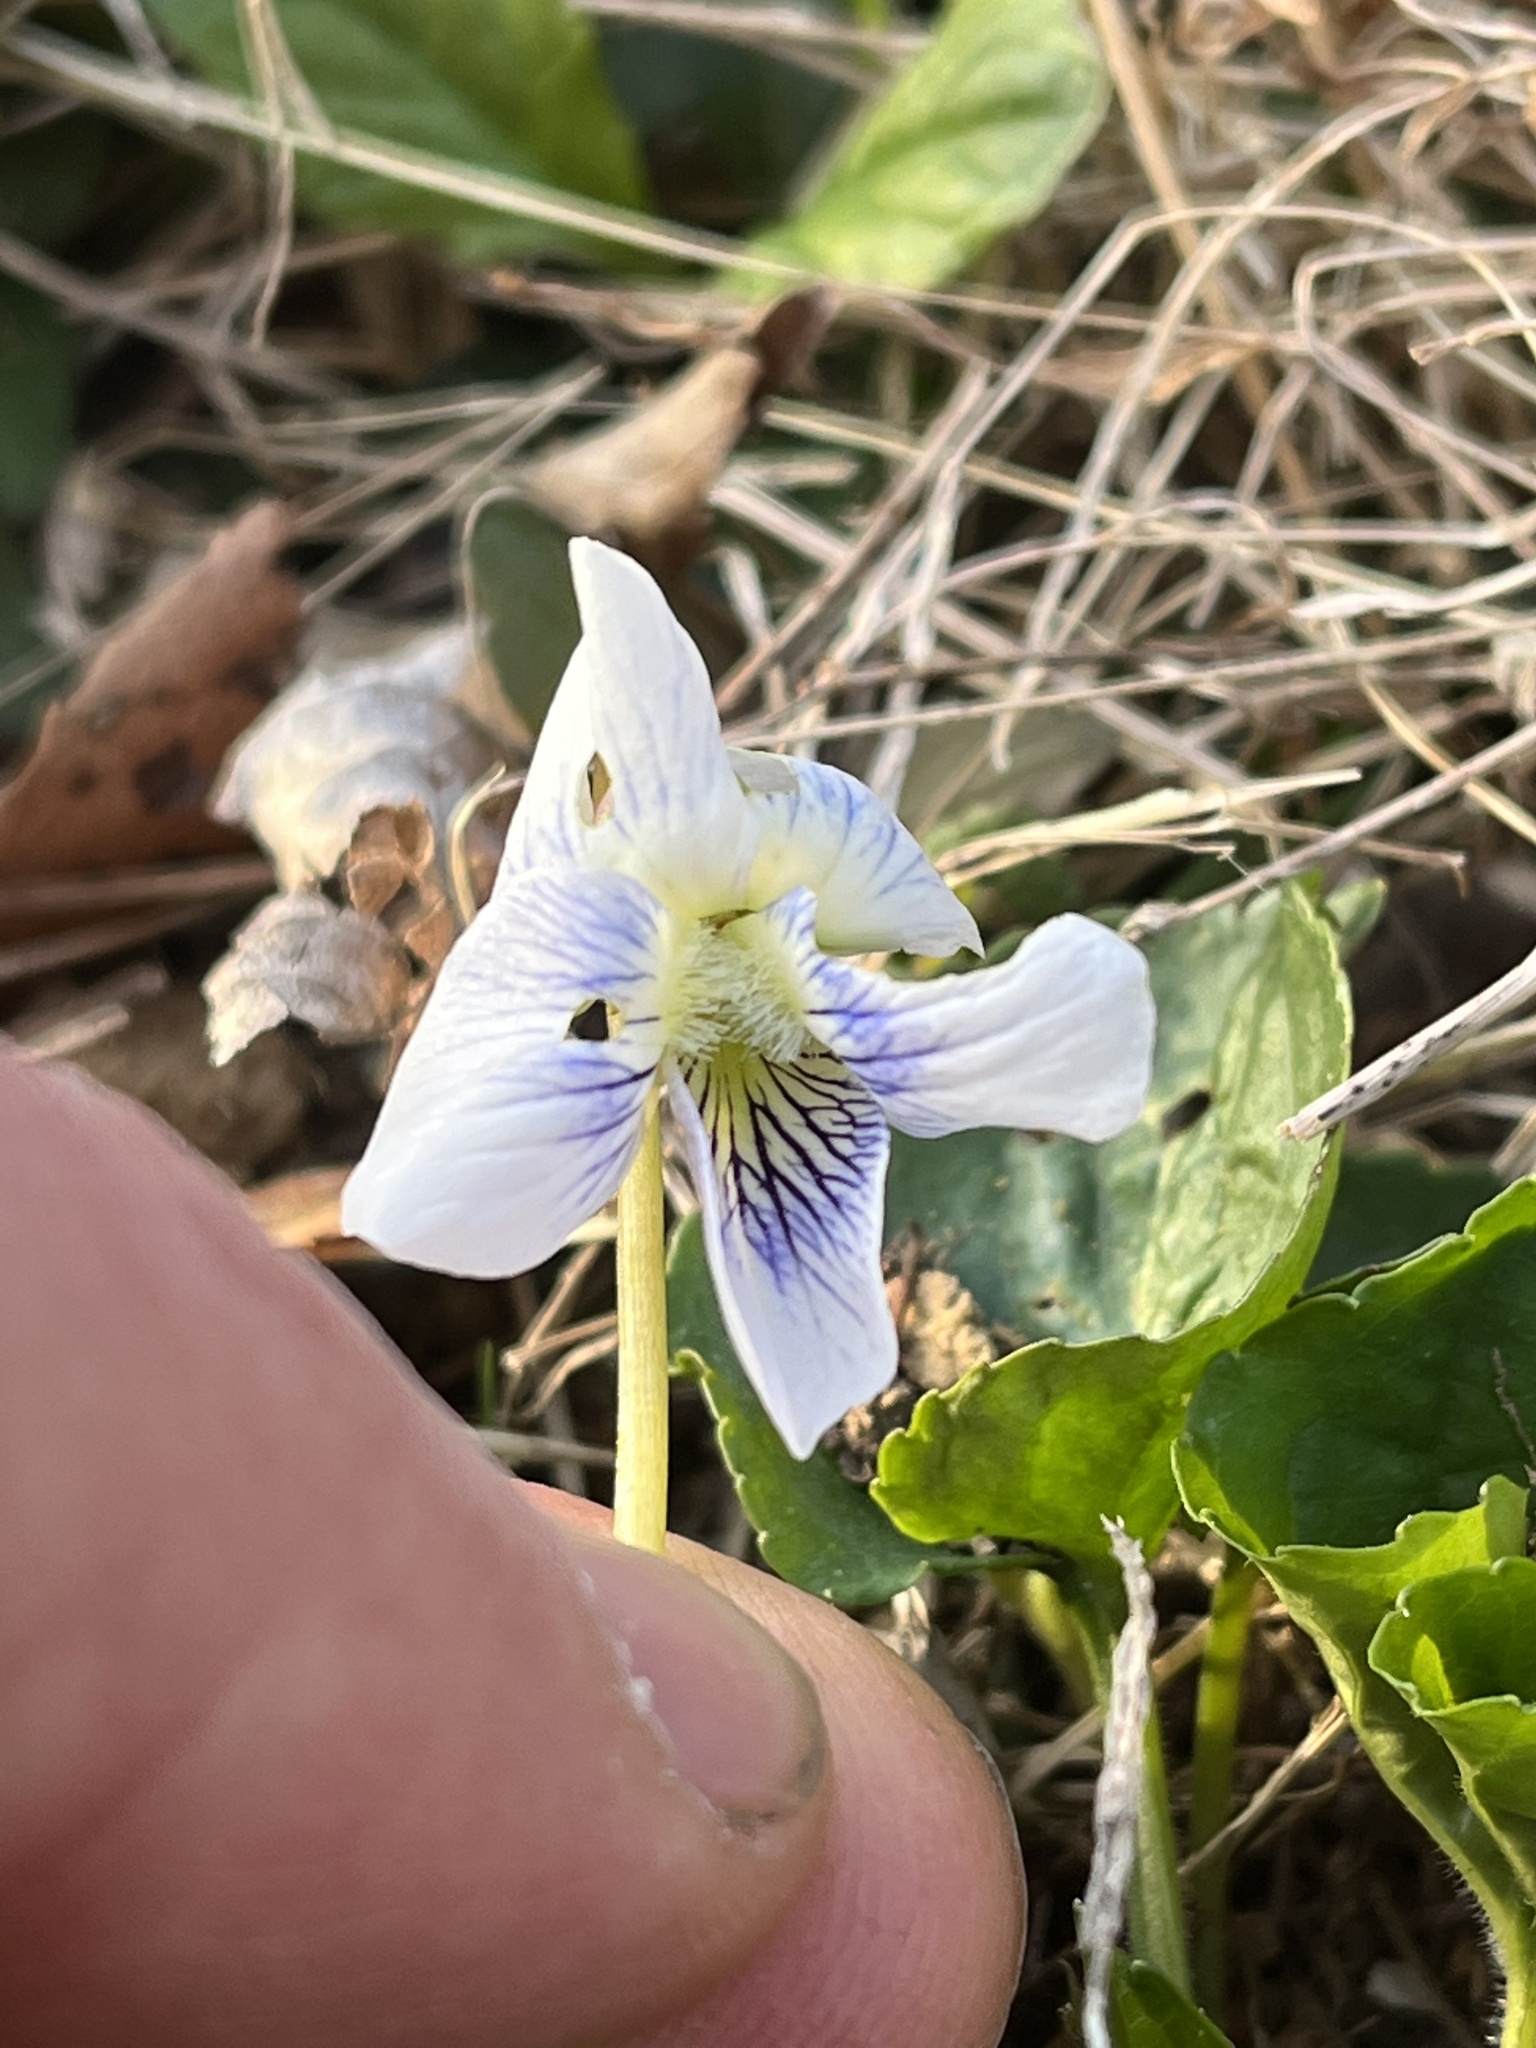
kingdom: Plantae
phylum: Tracheophyta
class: Magnoliopsida
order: Malpighiales
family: Violaceae
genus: Viola
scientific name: Viola sororia
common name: Dooryard violet
